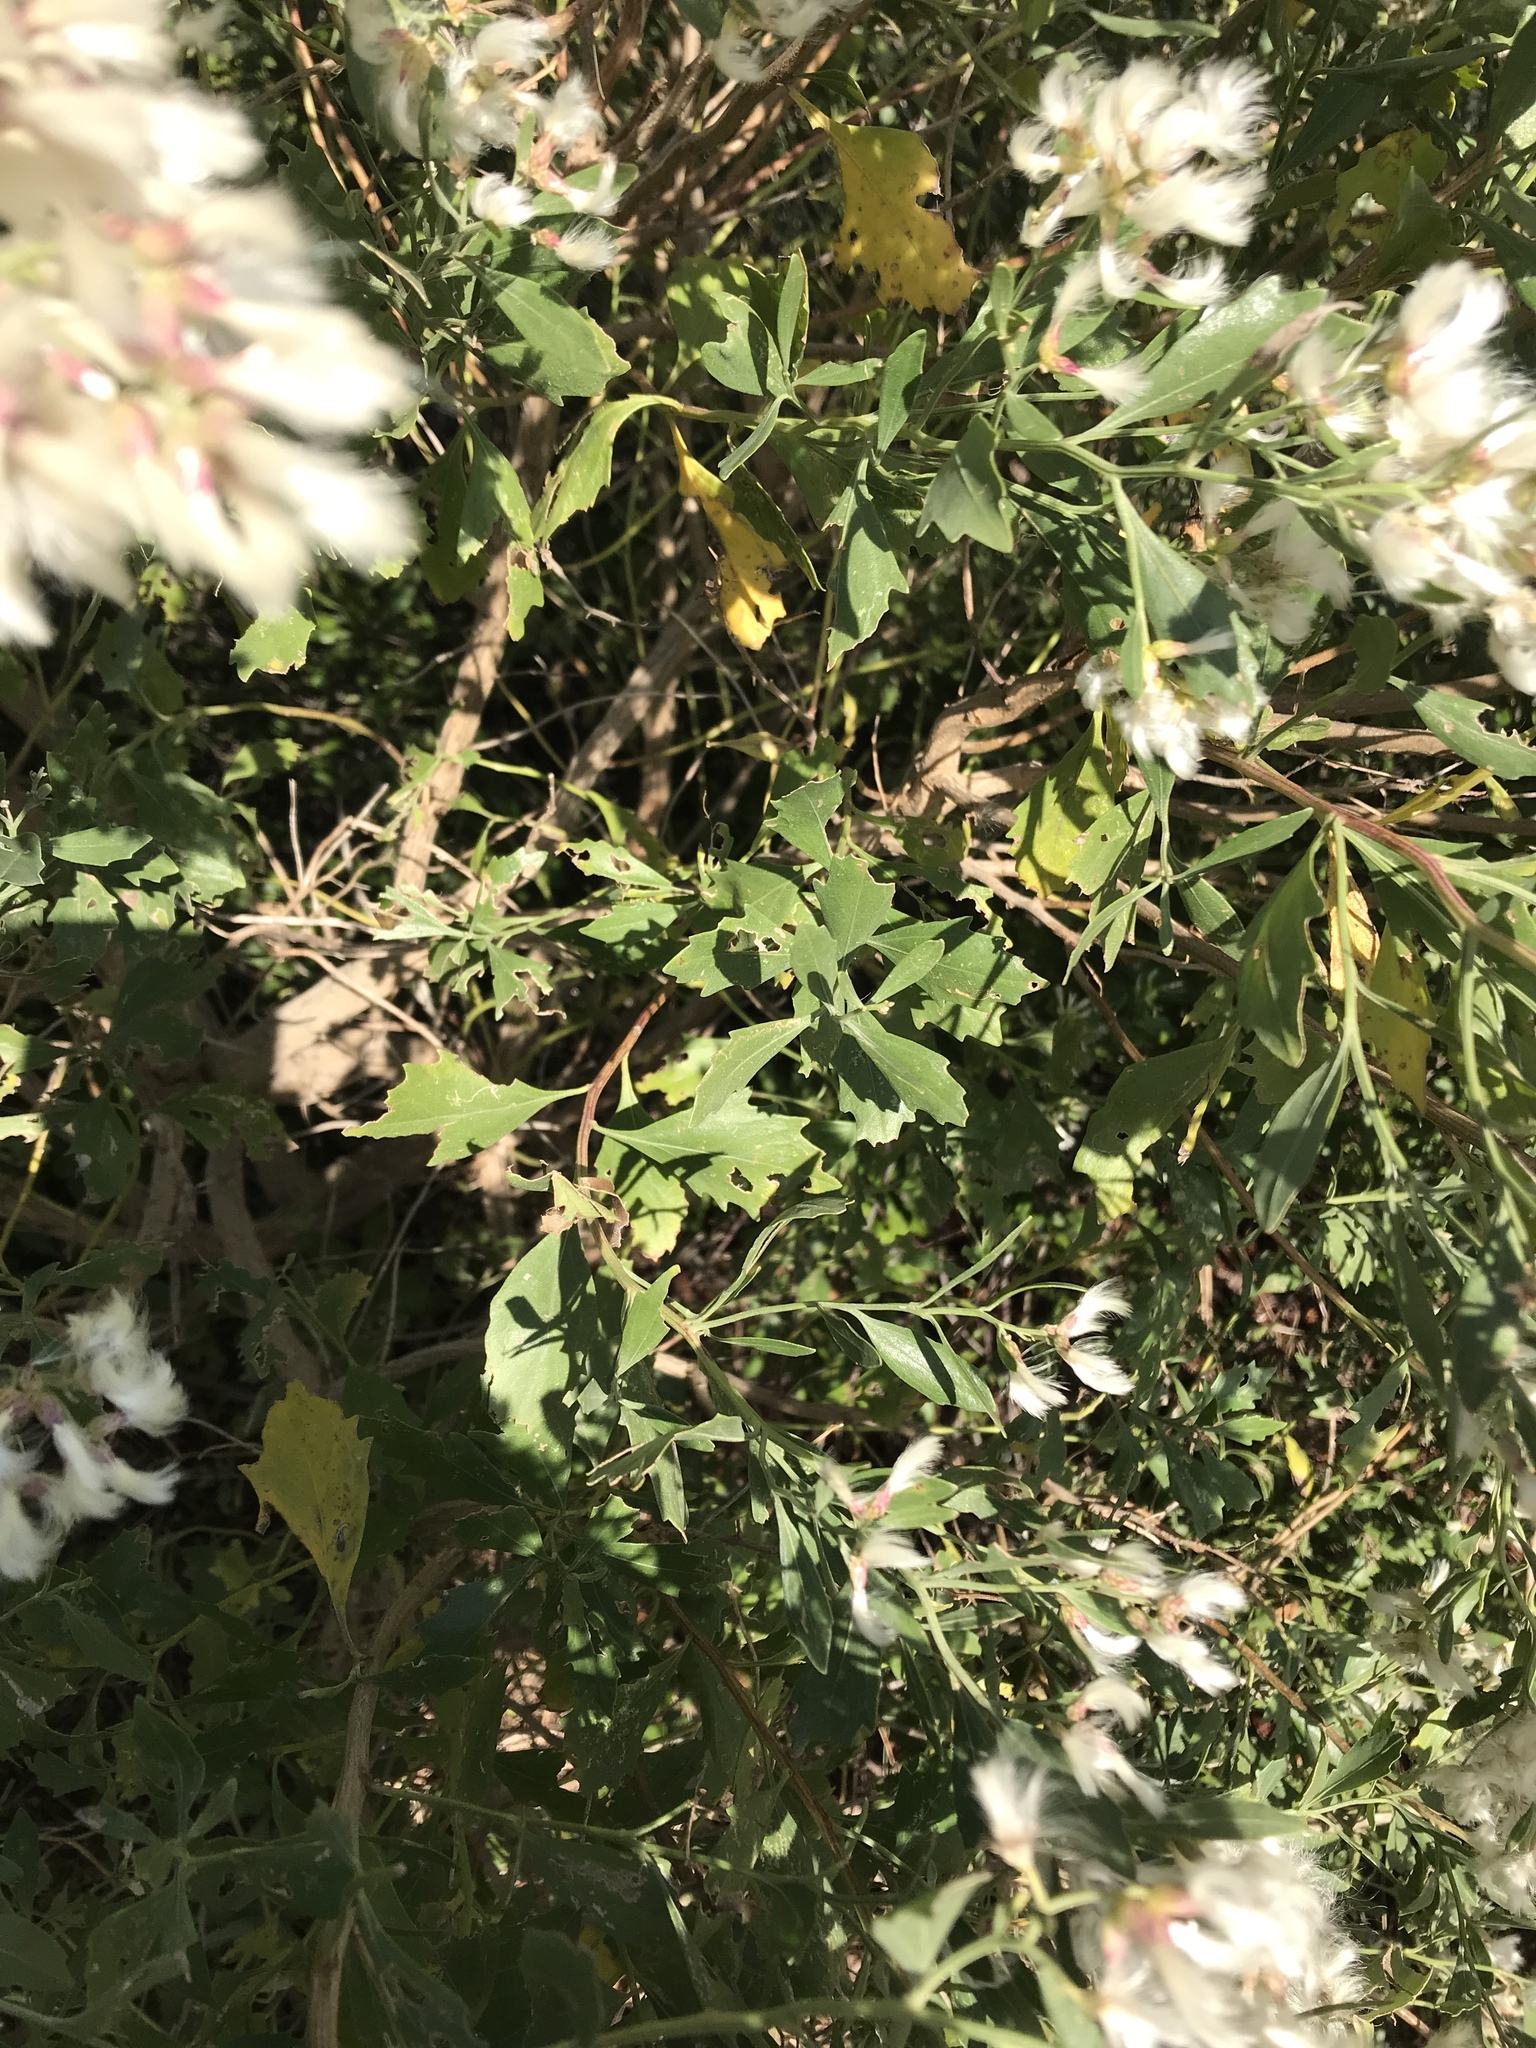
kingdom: Plantae
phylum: Tracheophyta
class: Magnoliopsida
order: Asterales
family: Asteraceae
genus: Baccharis
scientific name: Baccharis halimifolia
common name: Eastern baccharis
